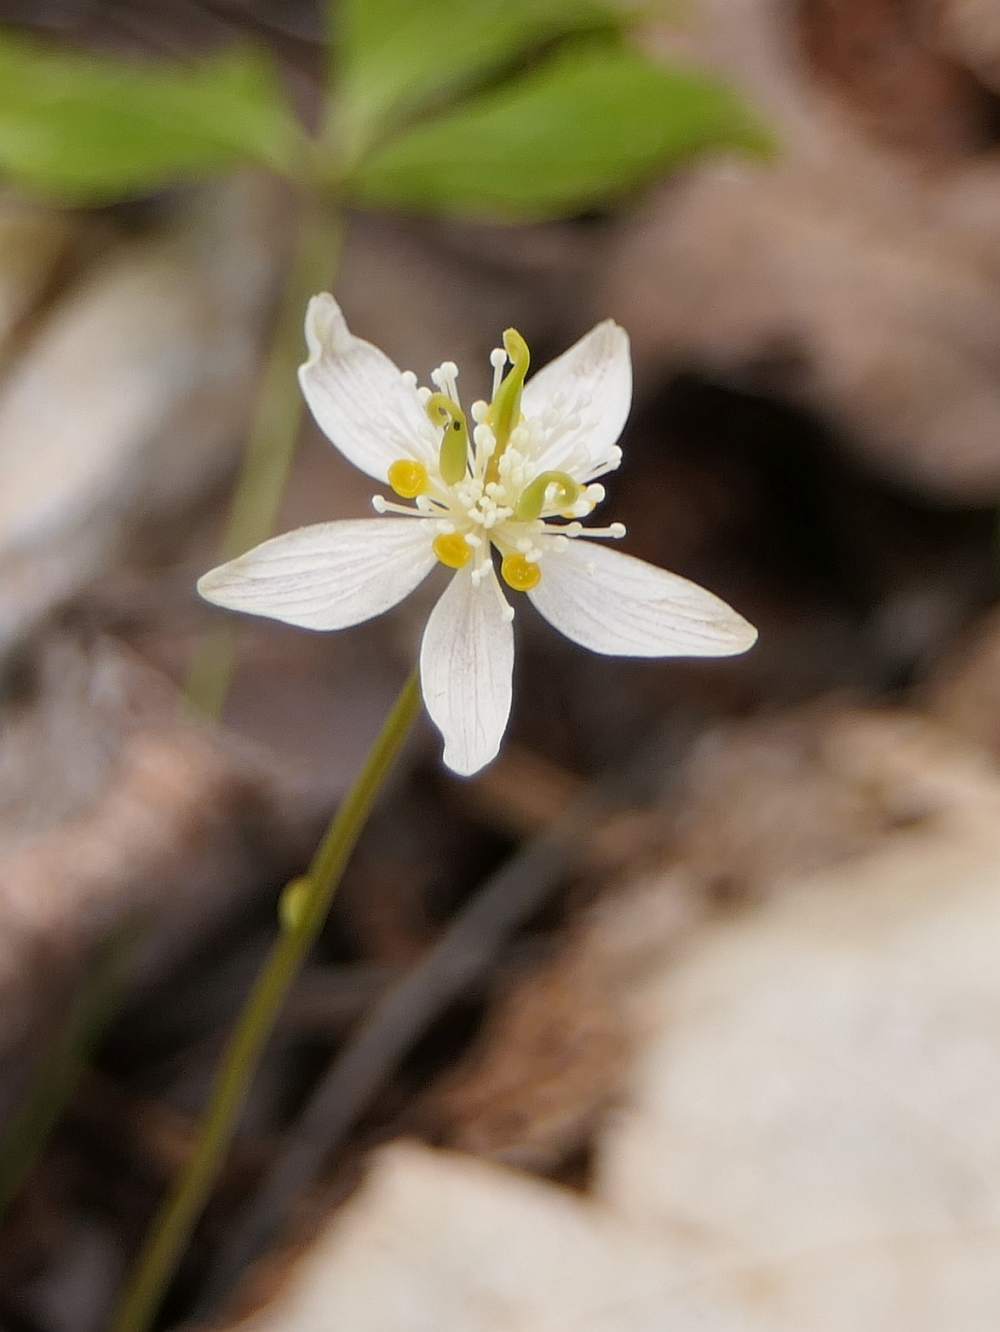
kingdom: Plantae
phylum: Tracheophyta
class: Magnoliopsida
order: Ranunculales
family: Ranunculaceae
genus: Coptis
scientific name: Coptis trifolia
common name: Canker-root
